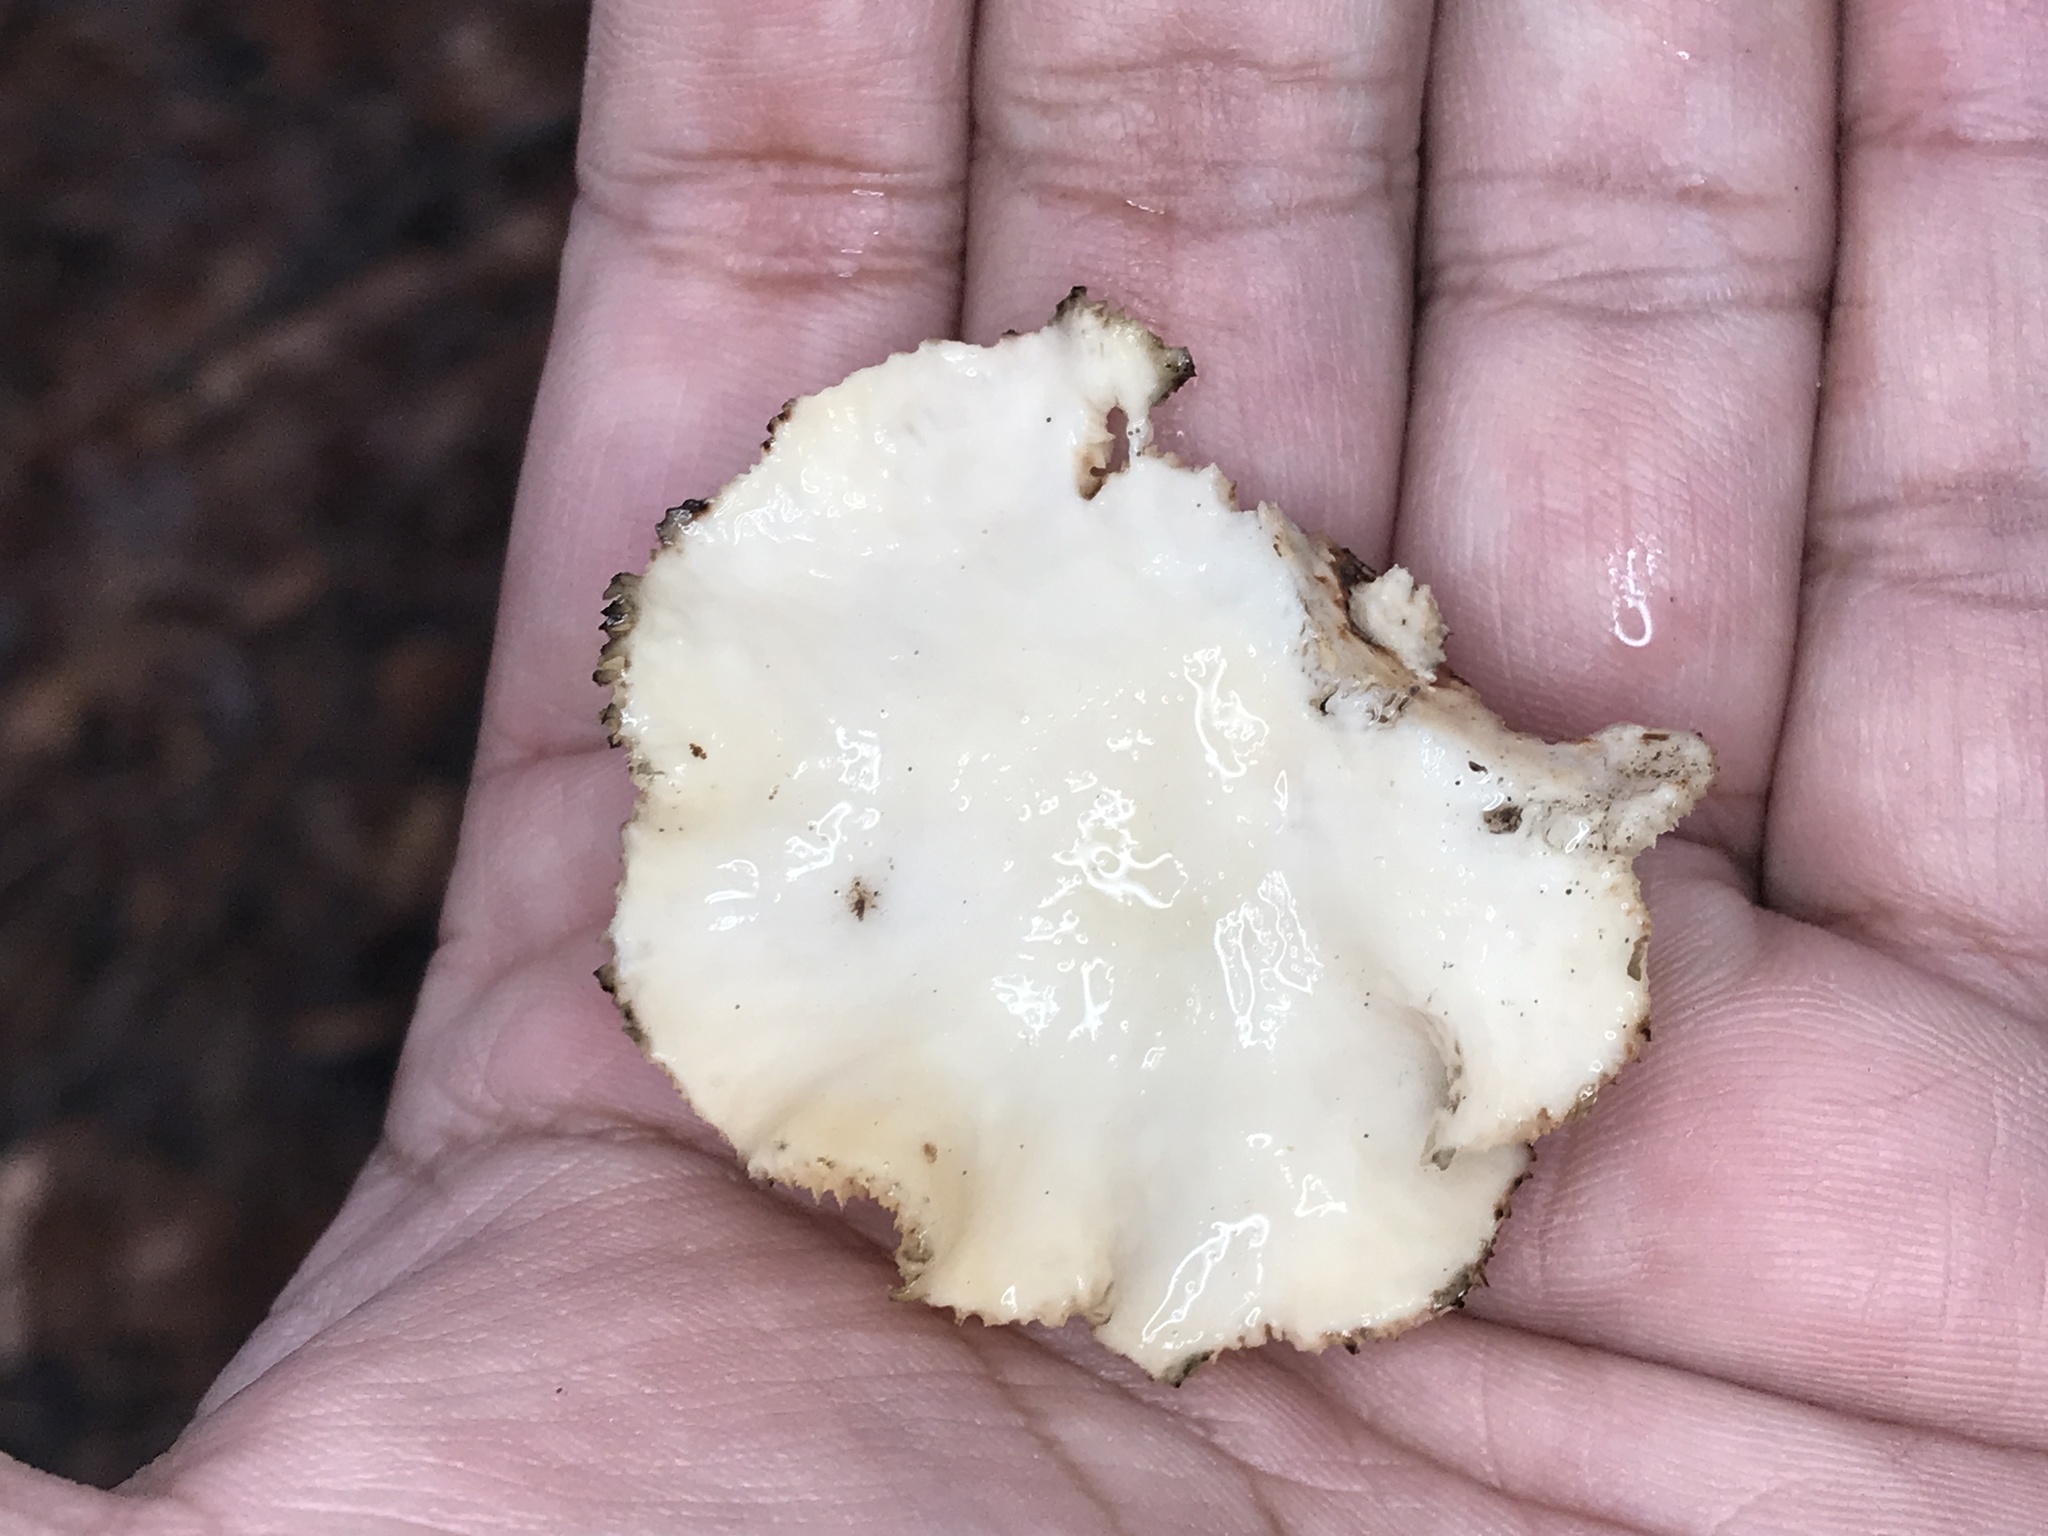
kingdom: Fungi
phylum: Basidiomycota
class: Agaricomycetes
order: Polyporales
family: Polyporaceae
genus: Neofavolus
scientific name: Neofavolus alveolaris
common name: Hexagonal-pored polypore
